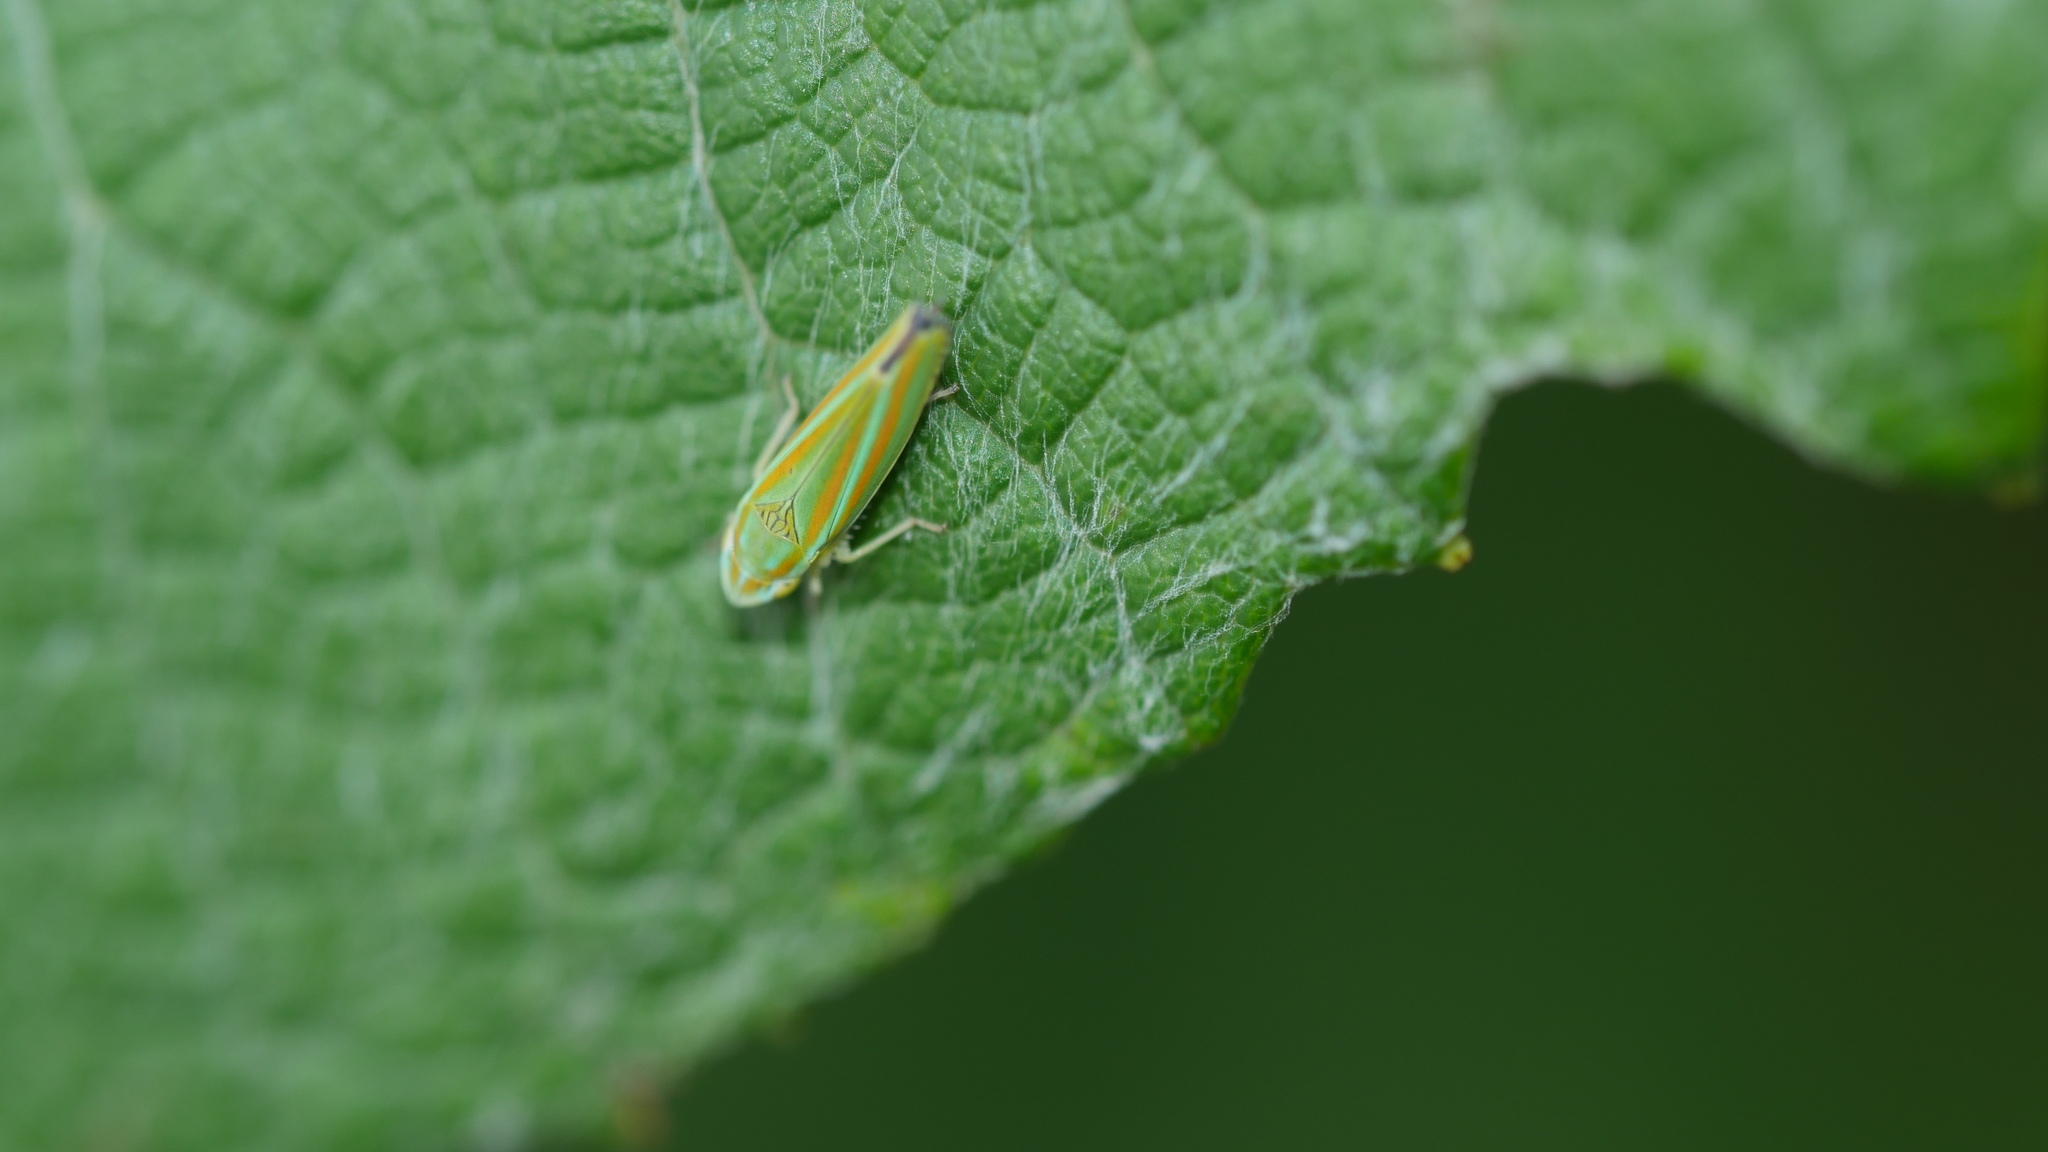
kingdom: Animalia
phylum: Arthropoda
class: Insecta
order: Hemiptera
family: Cicadellidae
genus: Graphocephala
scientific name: Graphocephala versuta
